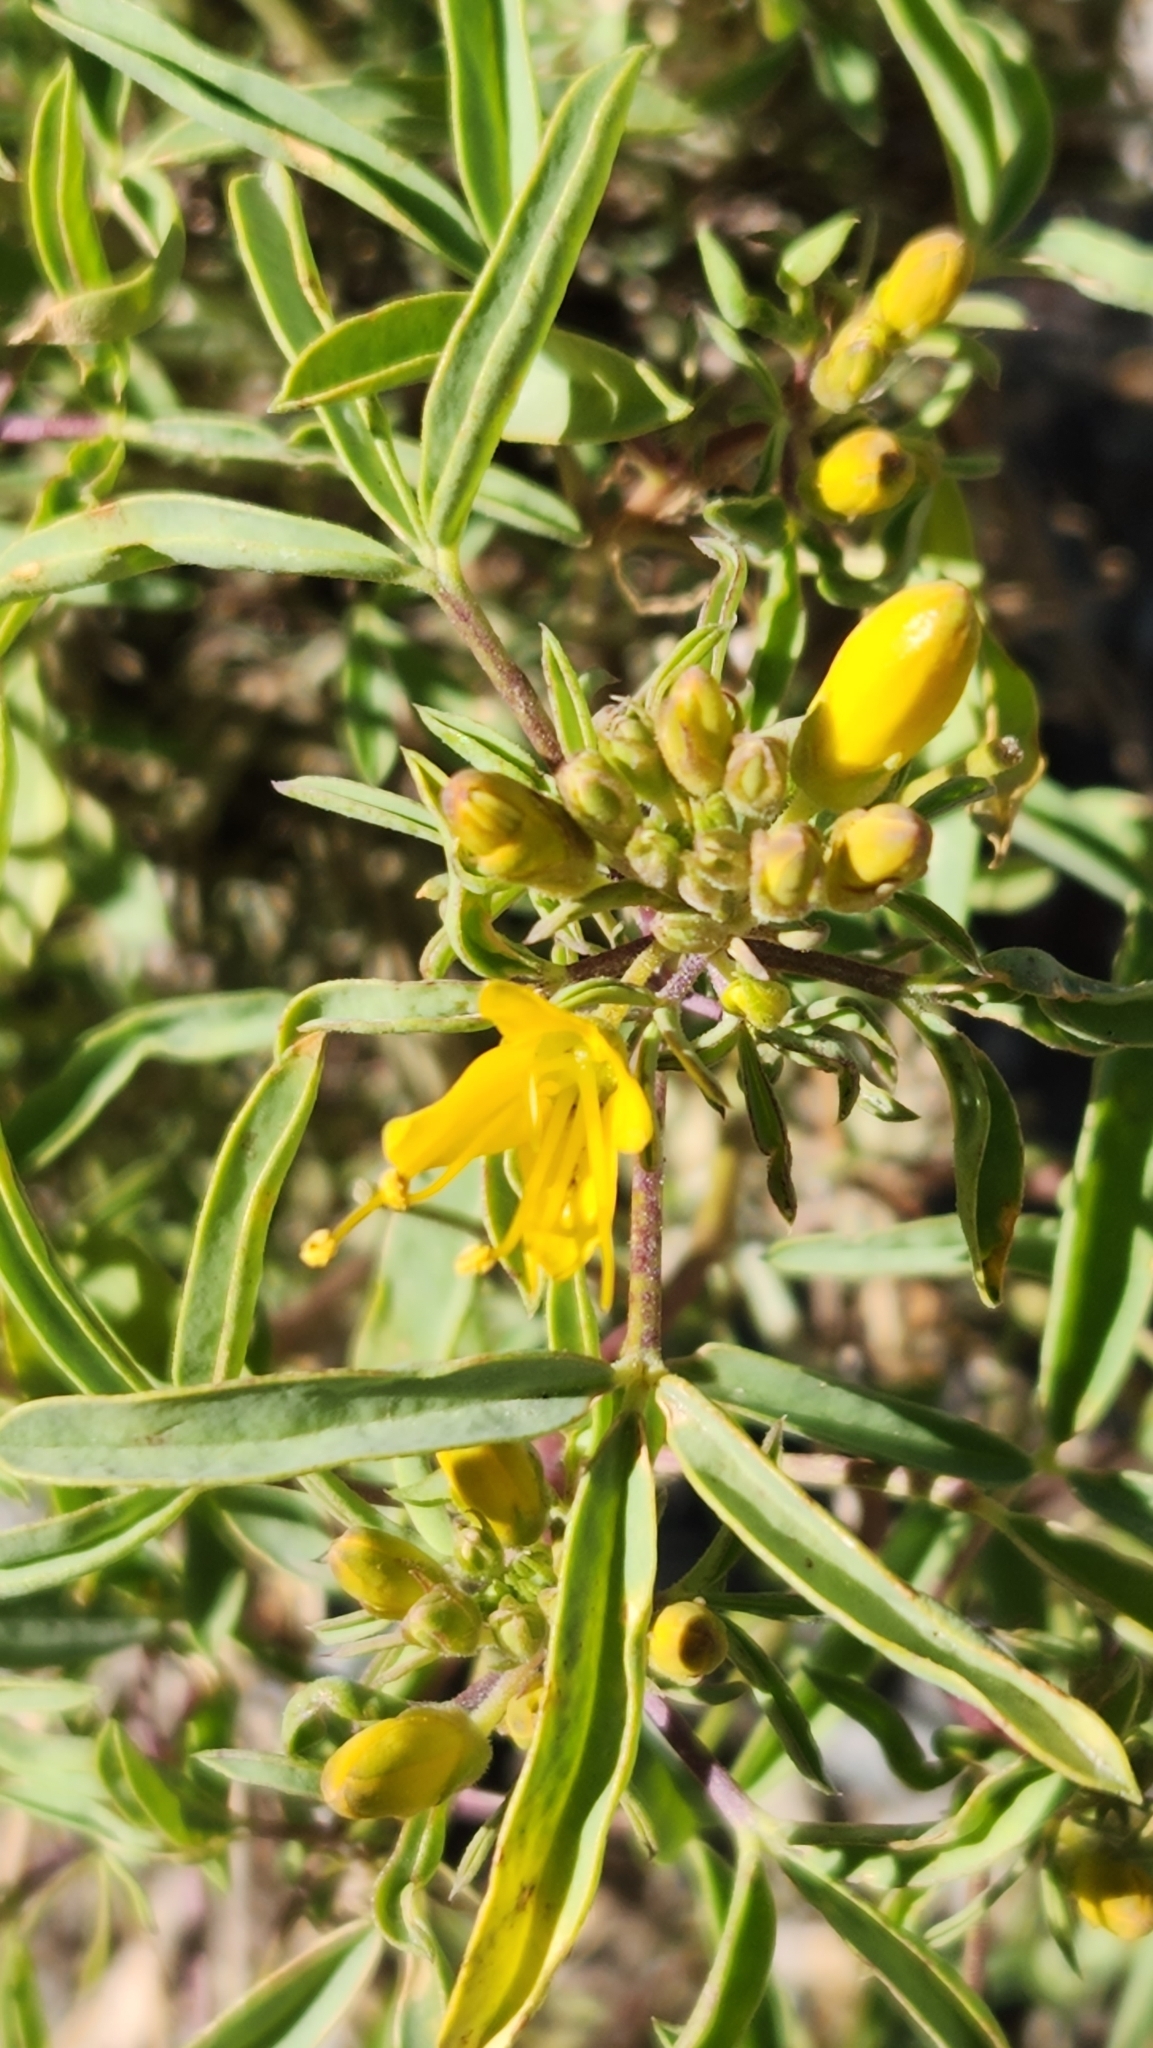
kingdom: Plantae
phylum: Tracheophyta
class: Magnoliopsida
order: Brassicales
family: Cleomaceae
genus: Cleomella
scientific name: Cleomella arborea
